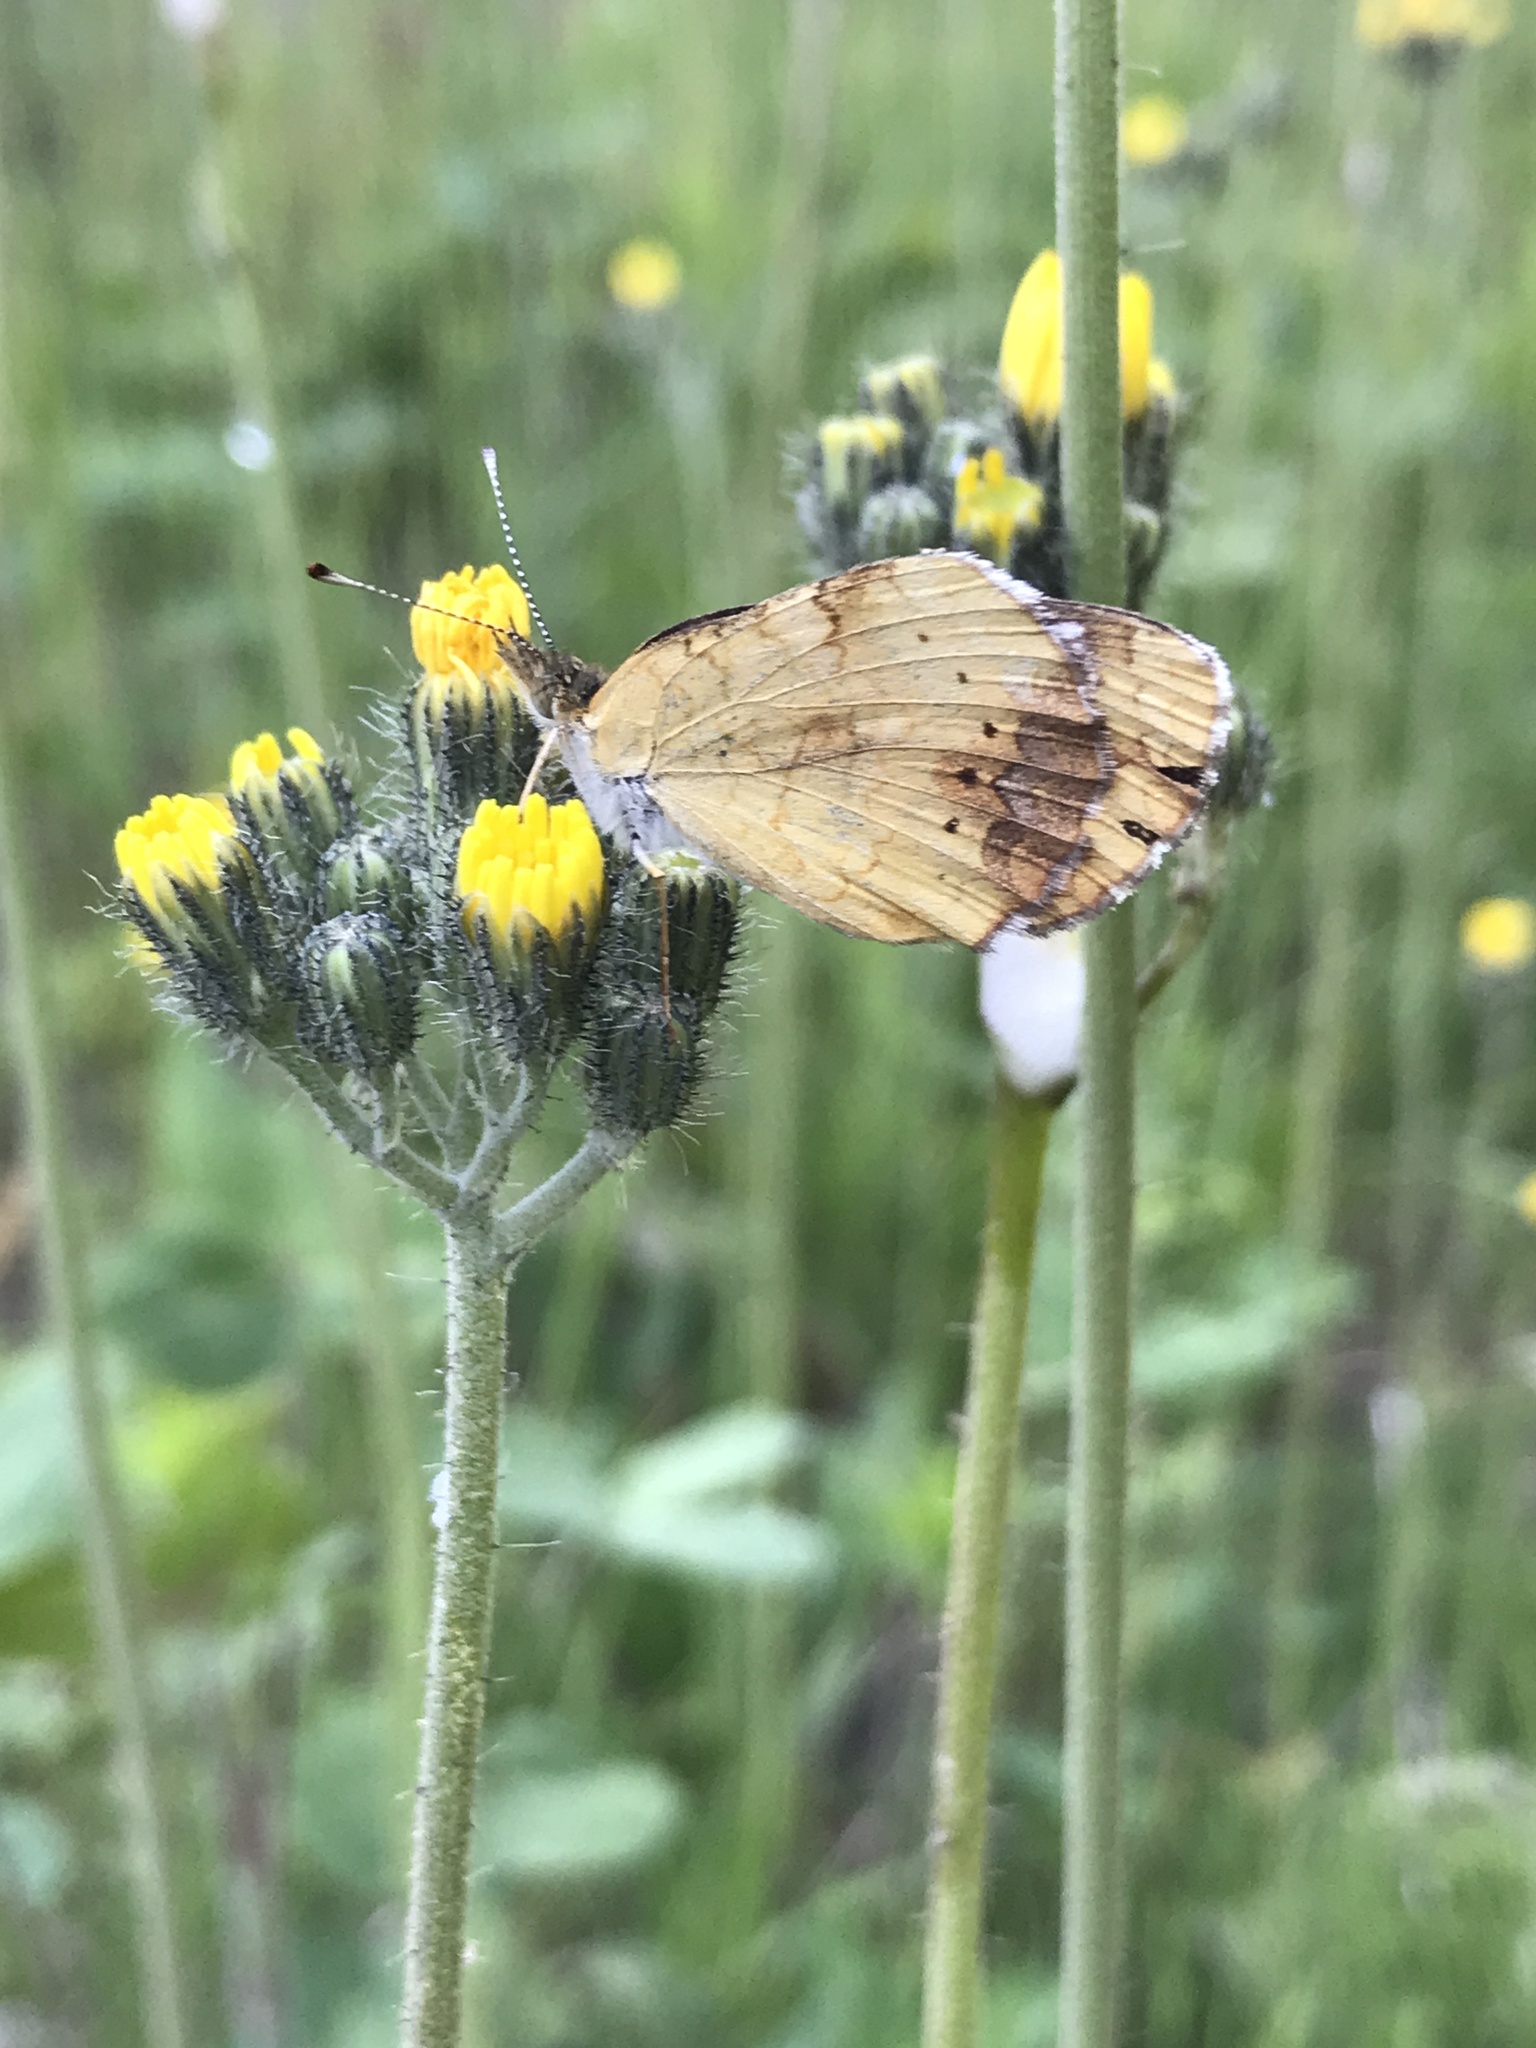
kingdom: Animalia
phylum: Arthropoda
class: Insecta
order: Lepidoptera
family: Nymphalidae
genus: Phyciodes
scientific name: Phyciodes tharos
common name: Pearl crescent
